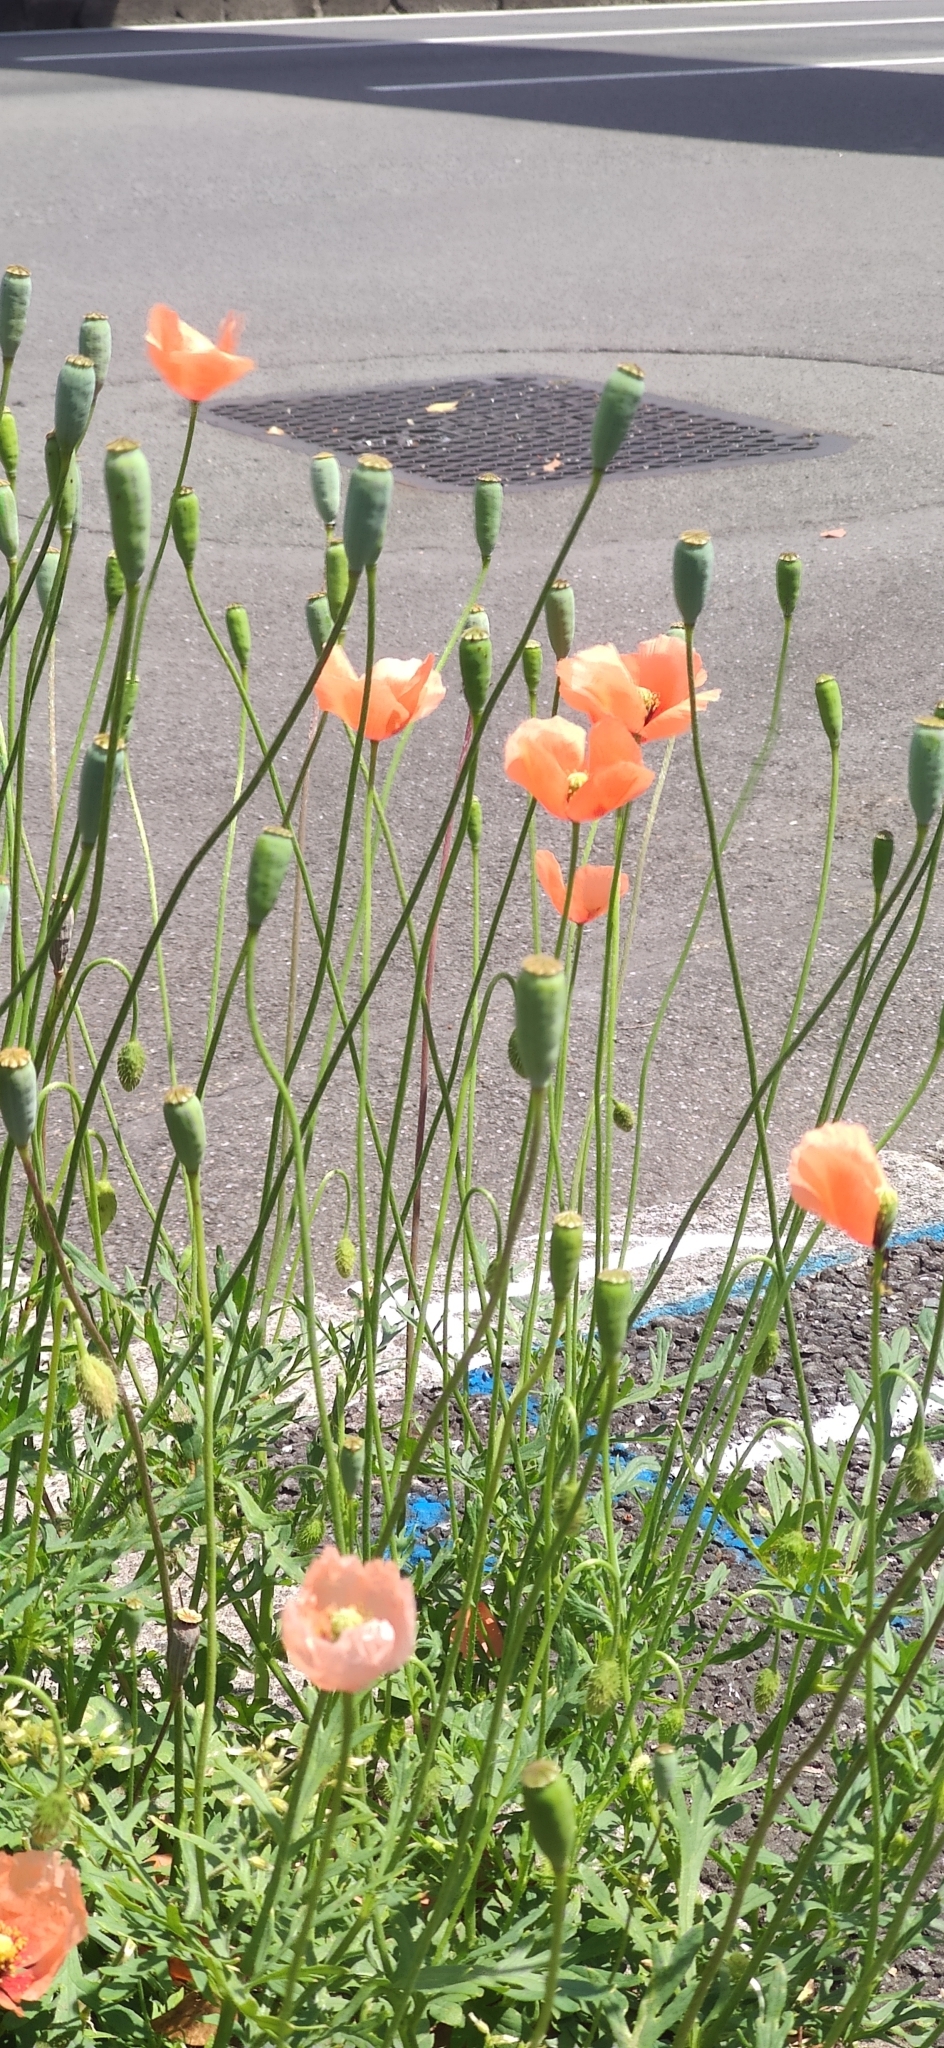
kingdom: Plantae
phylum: Tracheophyta
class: Magnoliopsida
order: Ranunculales
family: Papaveraceae
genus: Papaver
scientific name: Papaver dubium
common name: Long-headed poppy
